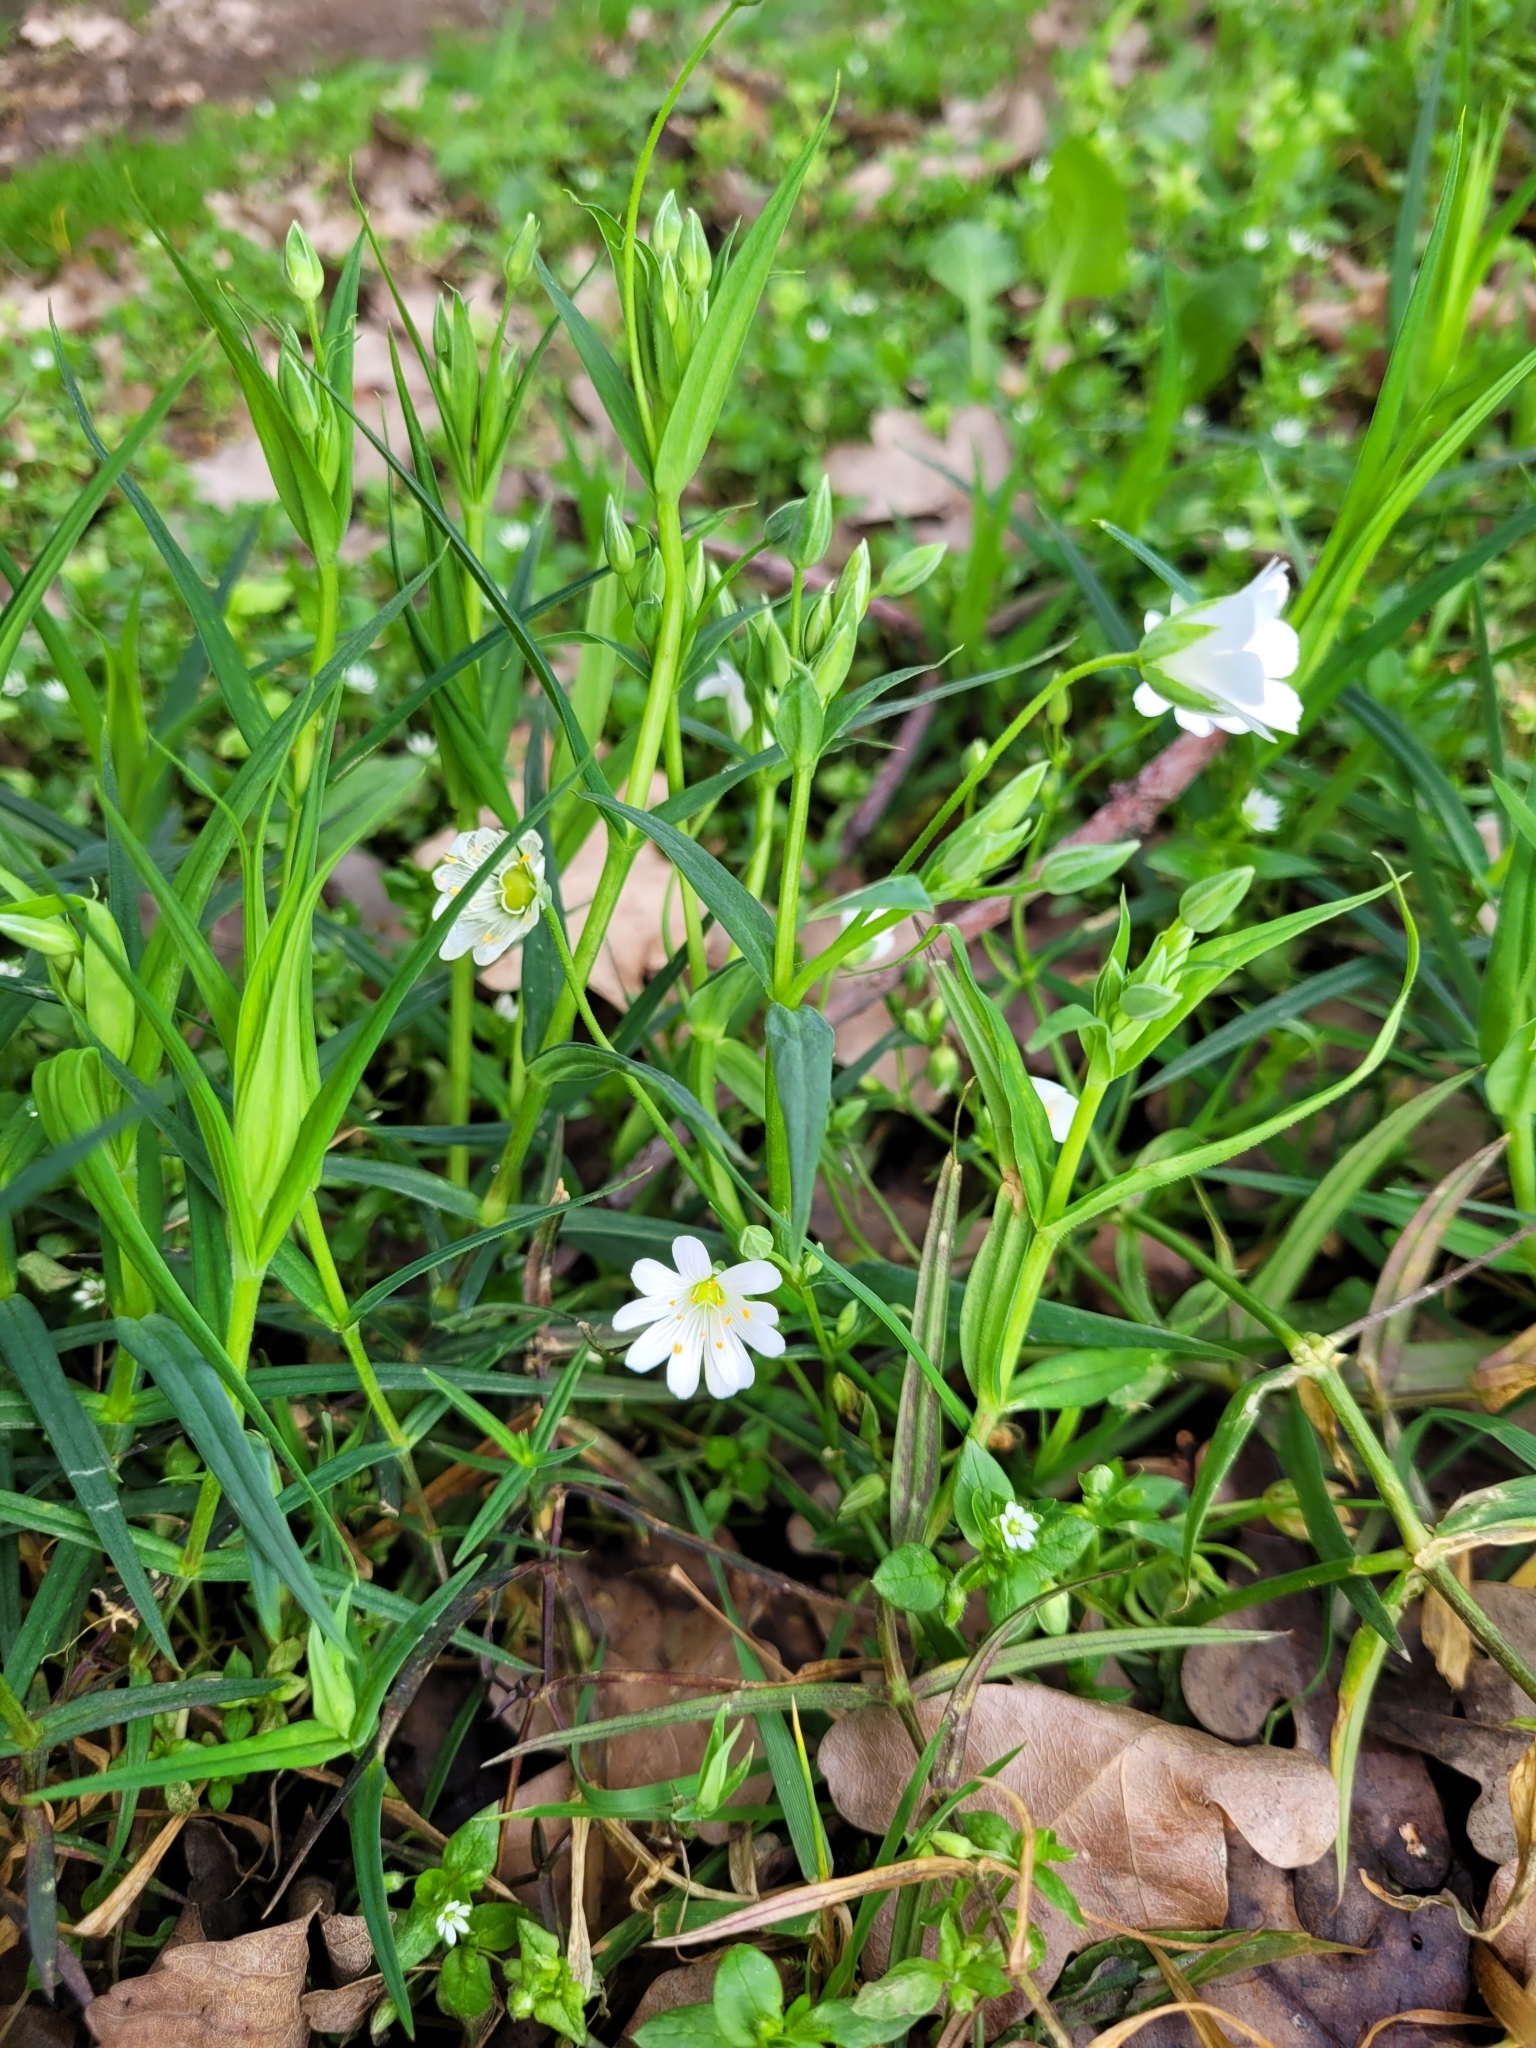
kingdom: Plantae
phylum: Tracheophyta
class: Magnoliopsida
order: Caryophyllales
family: Caryophyllaceae
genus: Rabelera
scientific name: Rabelera holostea
